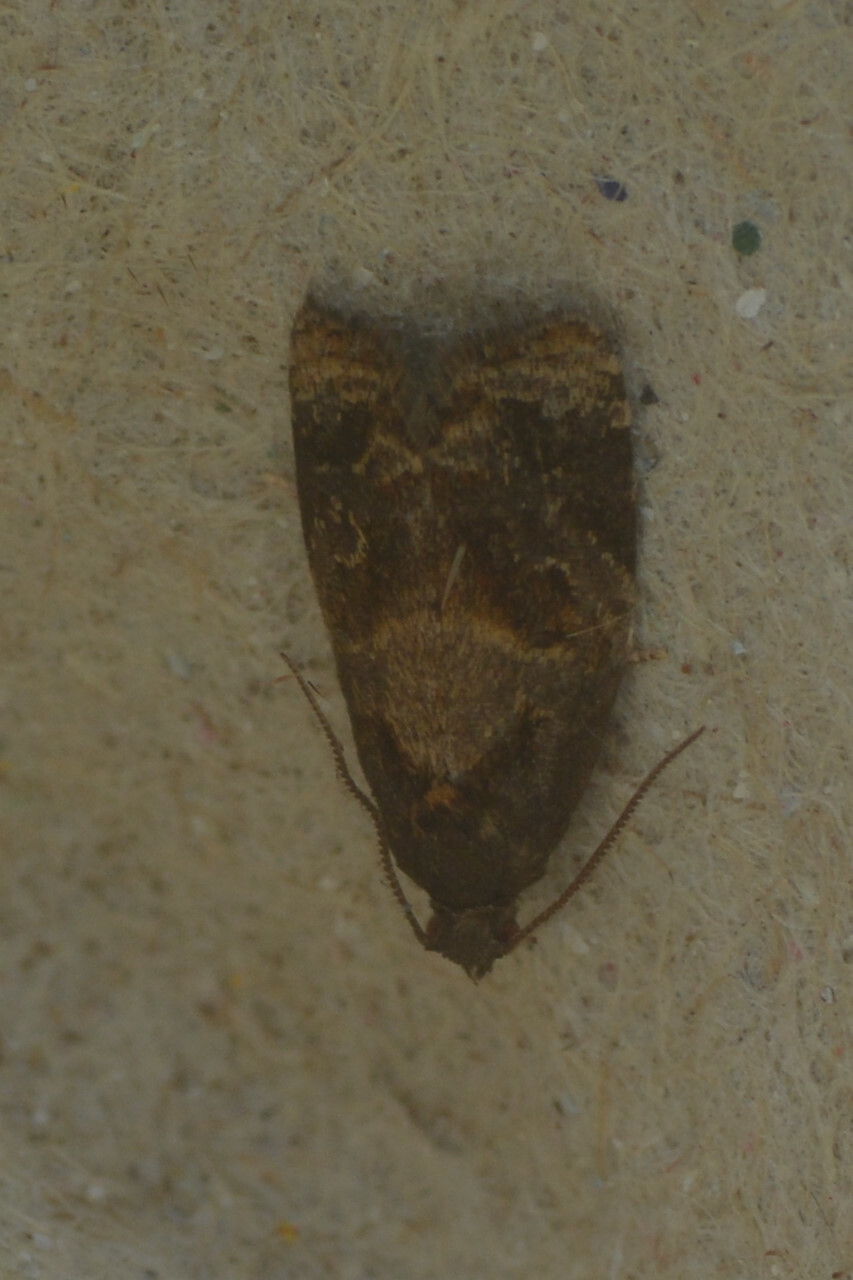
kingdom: Animalia
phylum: Arthropoda
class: Insecta
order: Lepidoptera
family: Tortricidae
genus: Ditula
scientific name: Ditula angustiorana
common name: Red-barred tortrix
